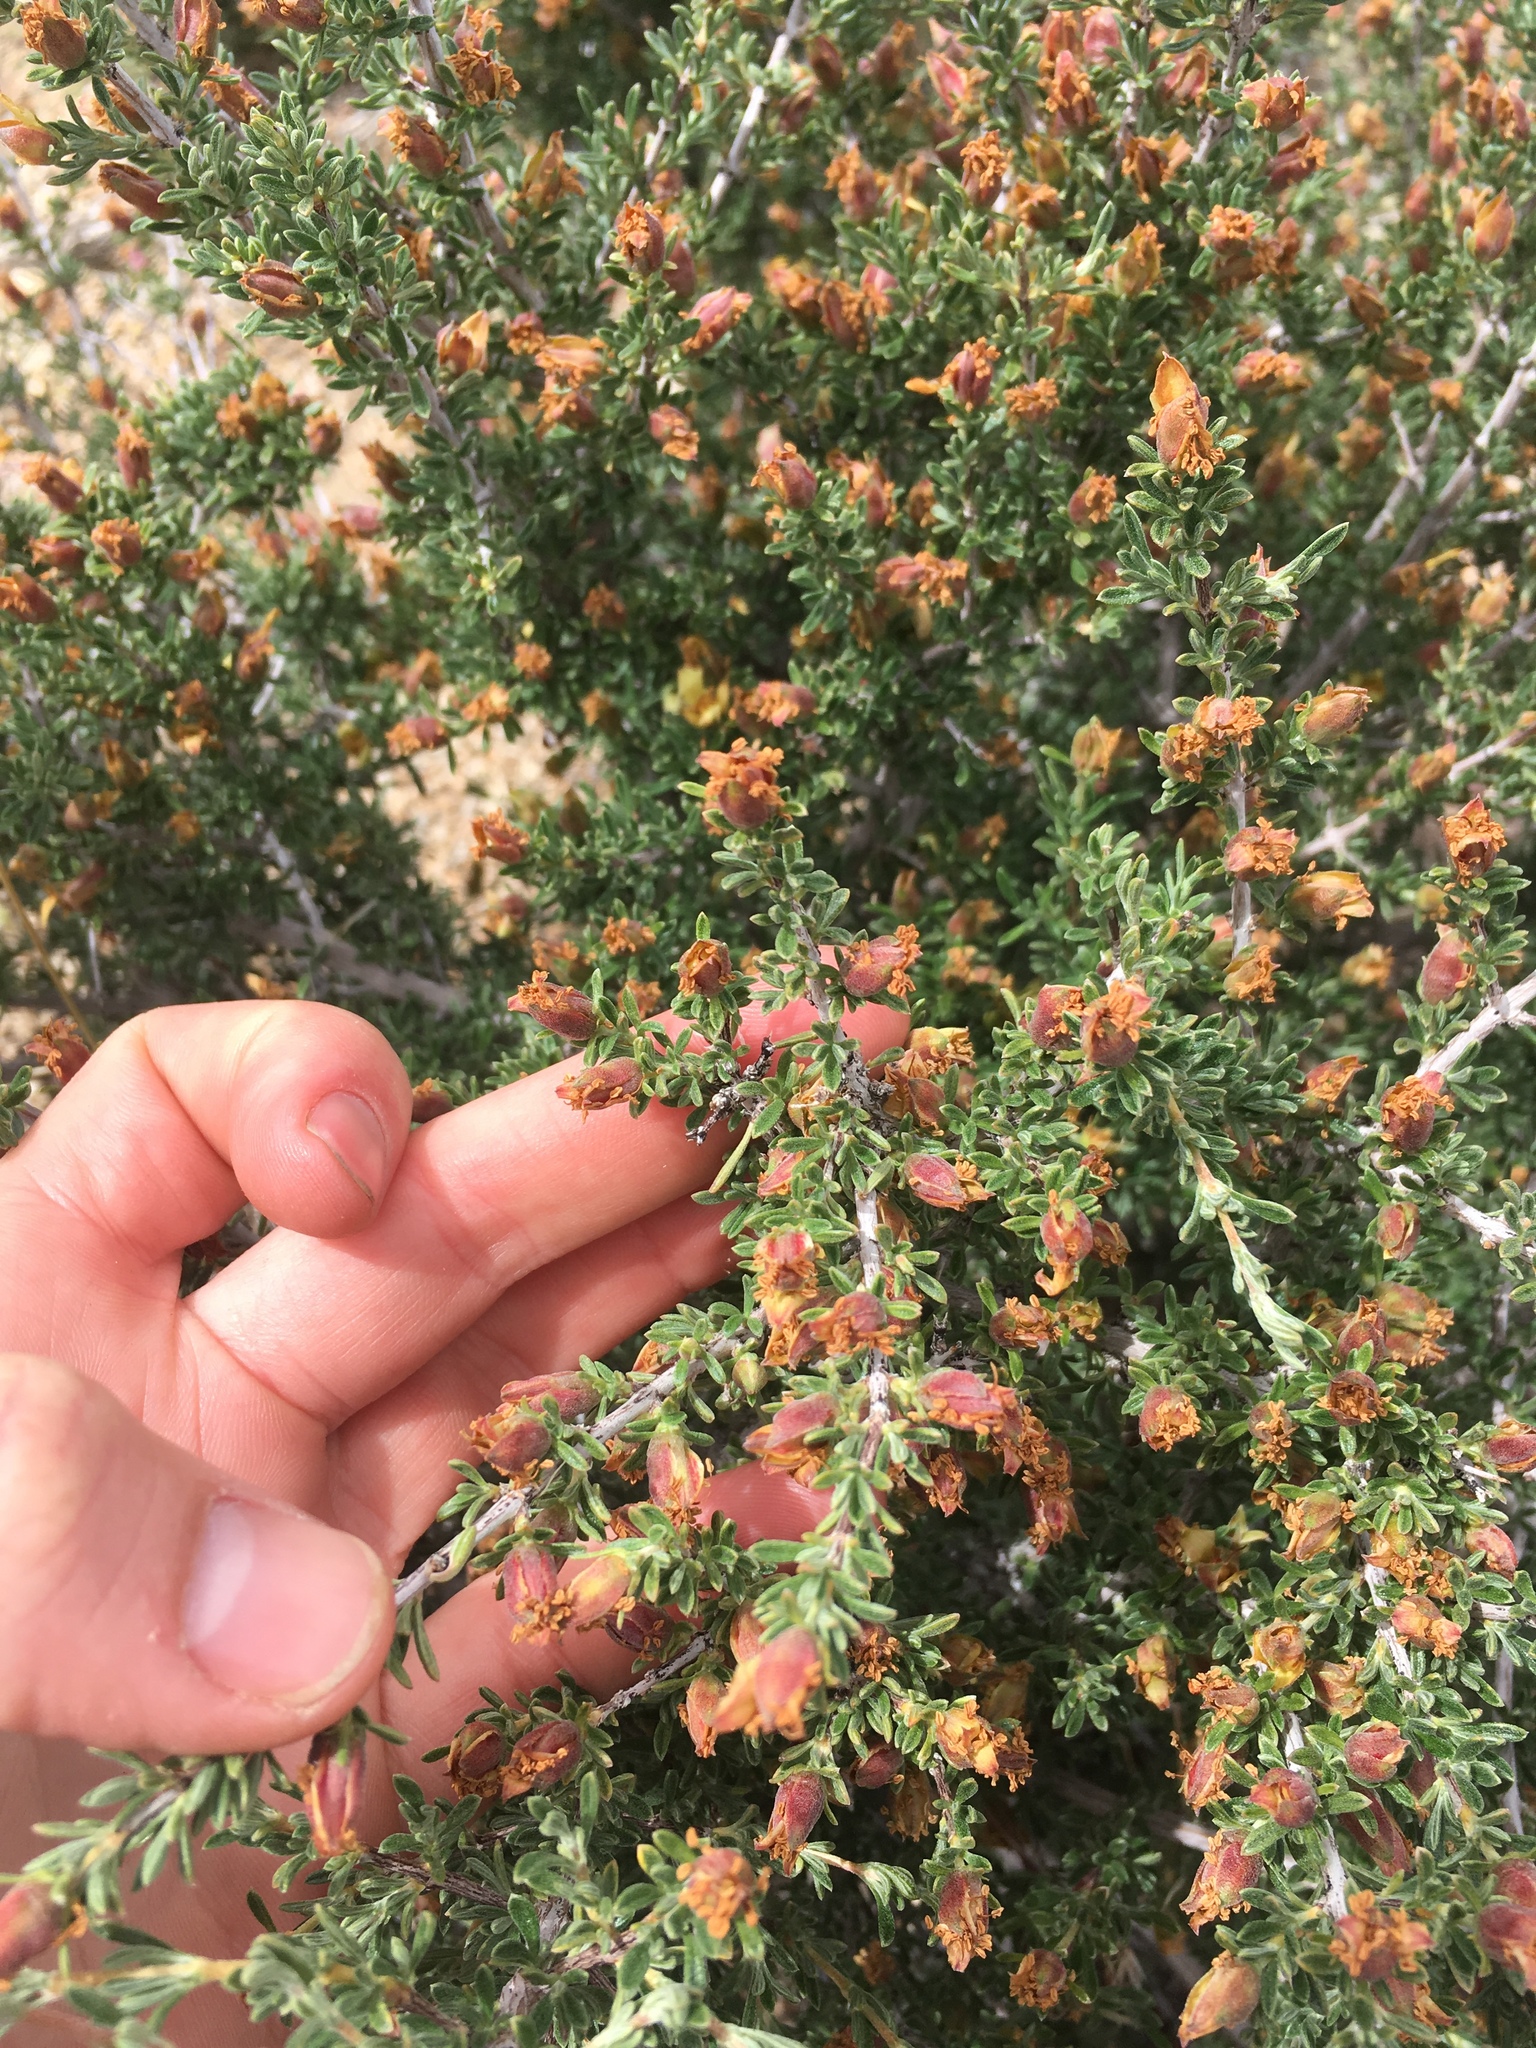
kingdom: Plantae
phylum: Tracheophyta
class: Magnoliopsida
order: Rosales
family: Rosaceae
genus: Coleogyne
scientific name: Coleogyne ramosissima
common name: Blackbrush
